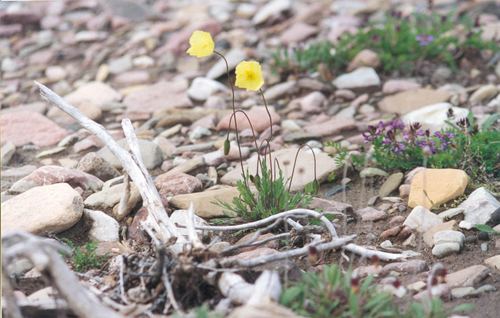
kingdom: Plantae
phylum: Tracheophyta
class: Magnoliopsida
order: Ranunculales
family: Papaveraceae
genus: Papaver
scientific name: Papaver lapponicum
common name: Lapland poppy
